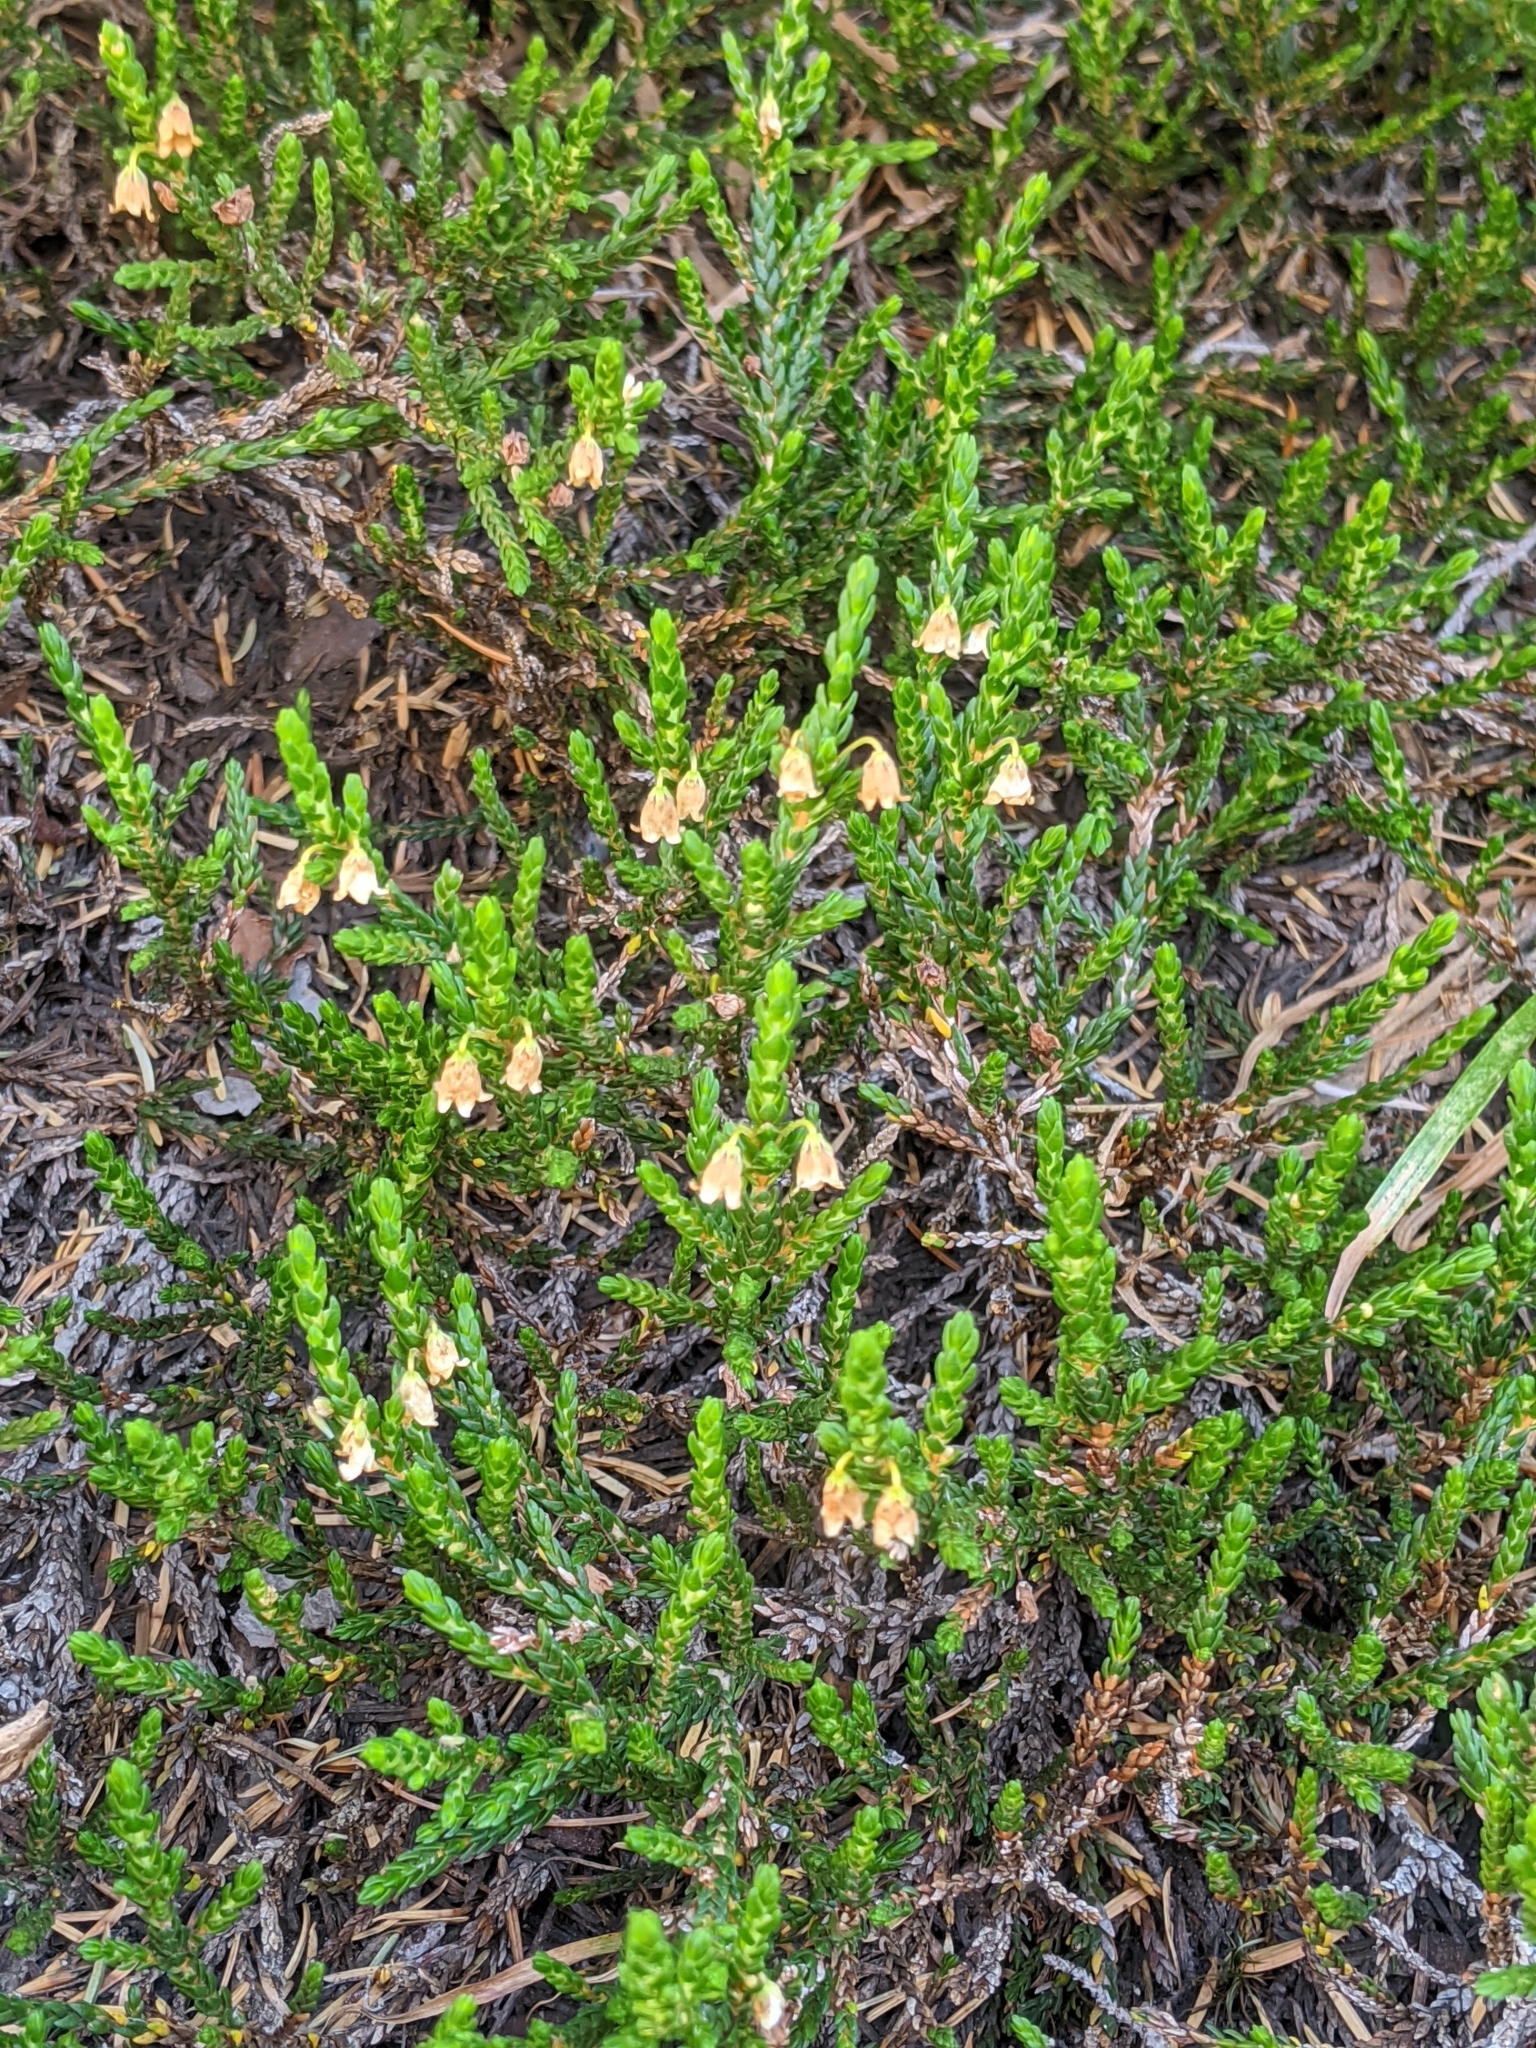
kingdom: Plantae
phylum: Tracheophyta
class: Magnoliopsida
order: Ericales
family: Ericaceae
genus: Cassiope
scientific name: Cassiope mertensiana
